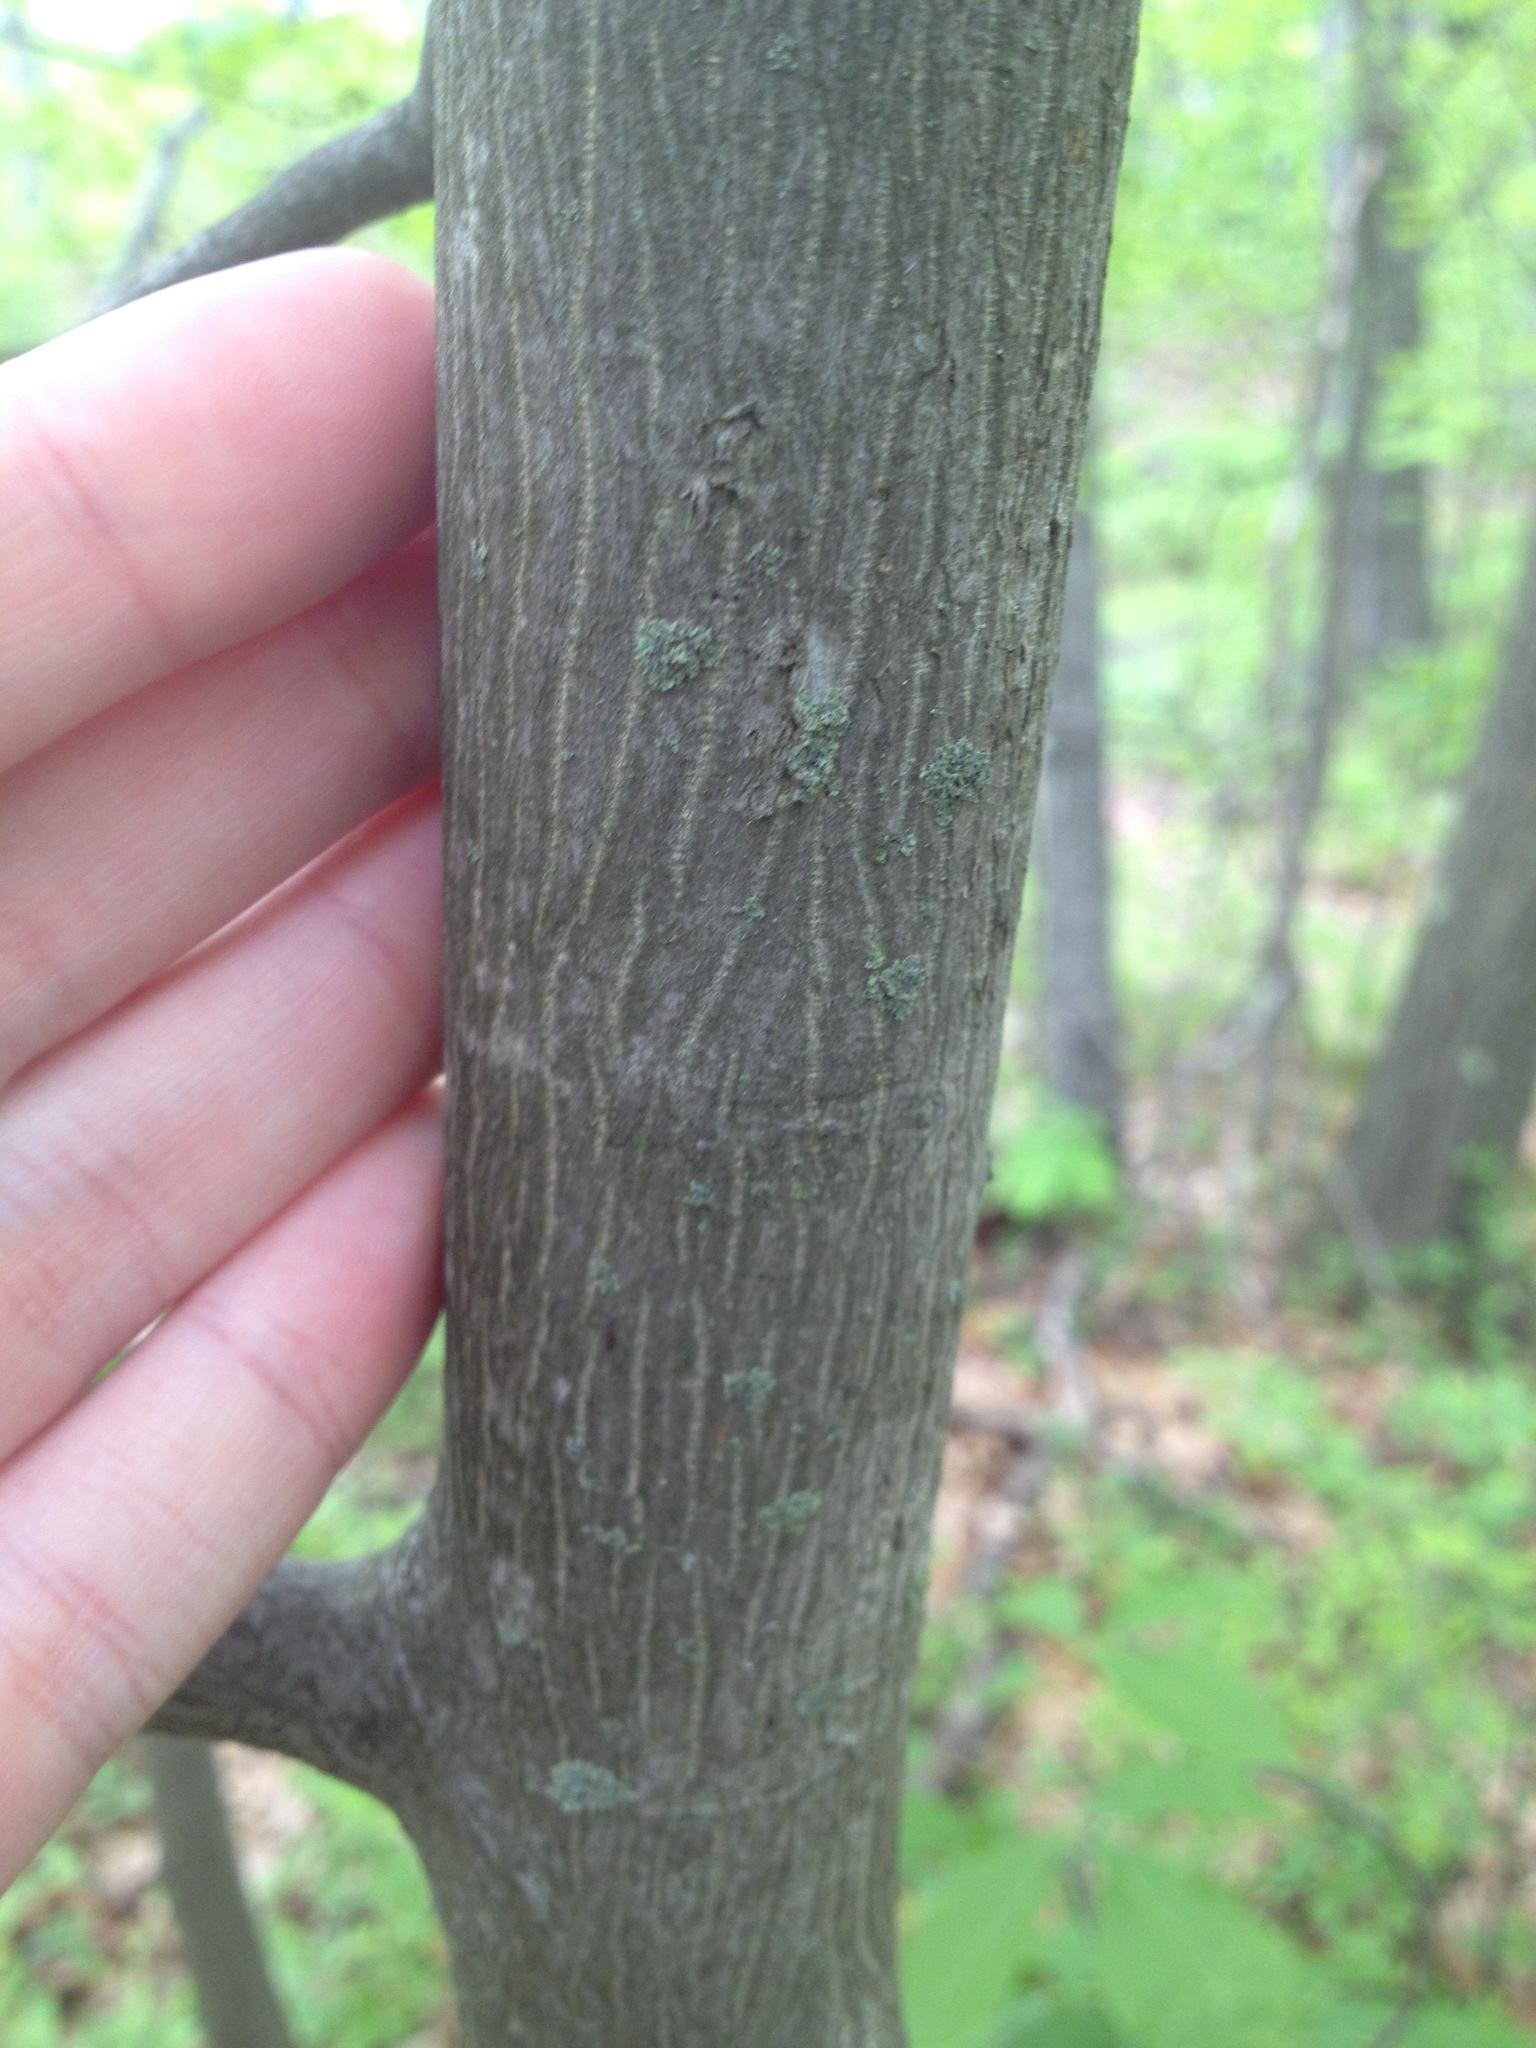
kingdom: Plantae
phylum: Tracheophyta
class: Magnoliopsida
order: Fagales
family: Juglandaceae
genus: Carya
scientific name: Carya cordiformis
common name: Bitternut hickory
